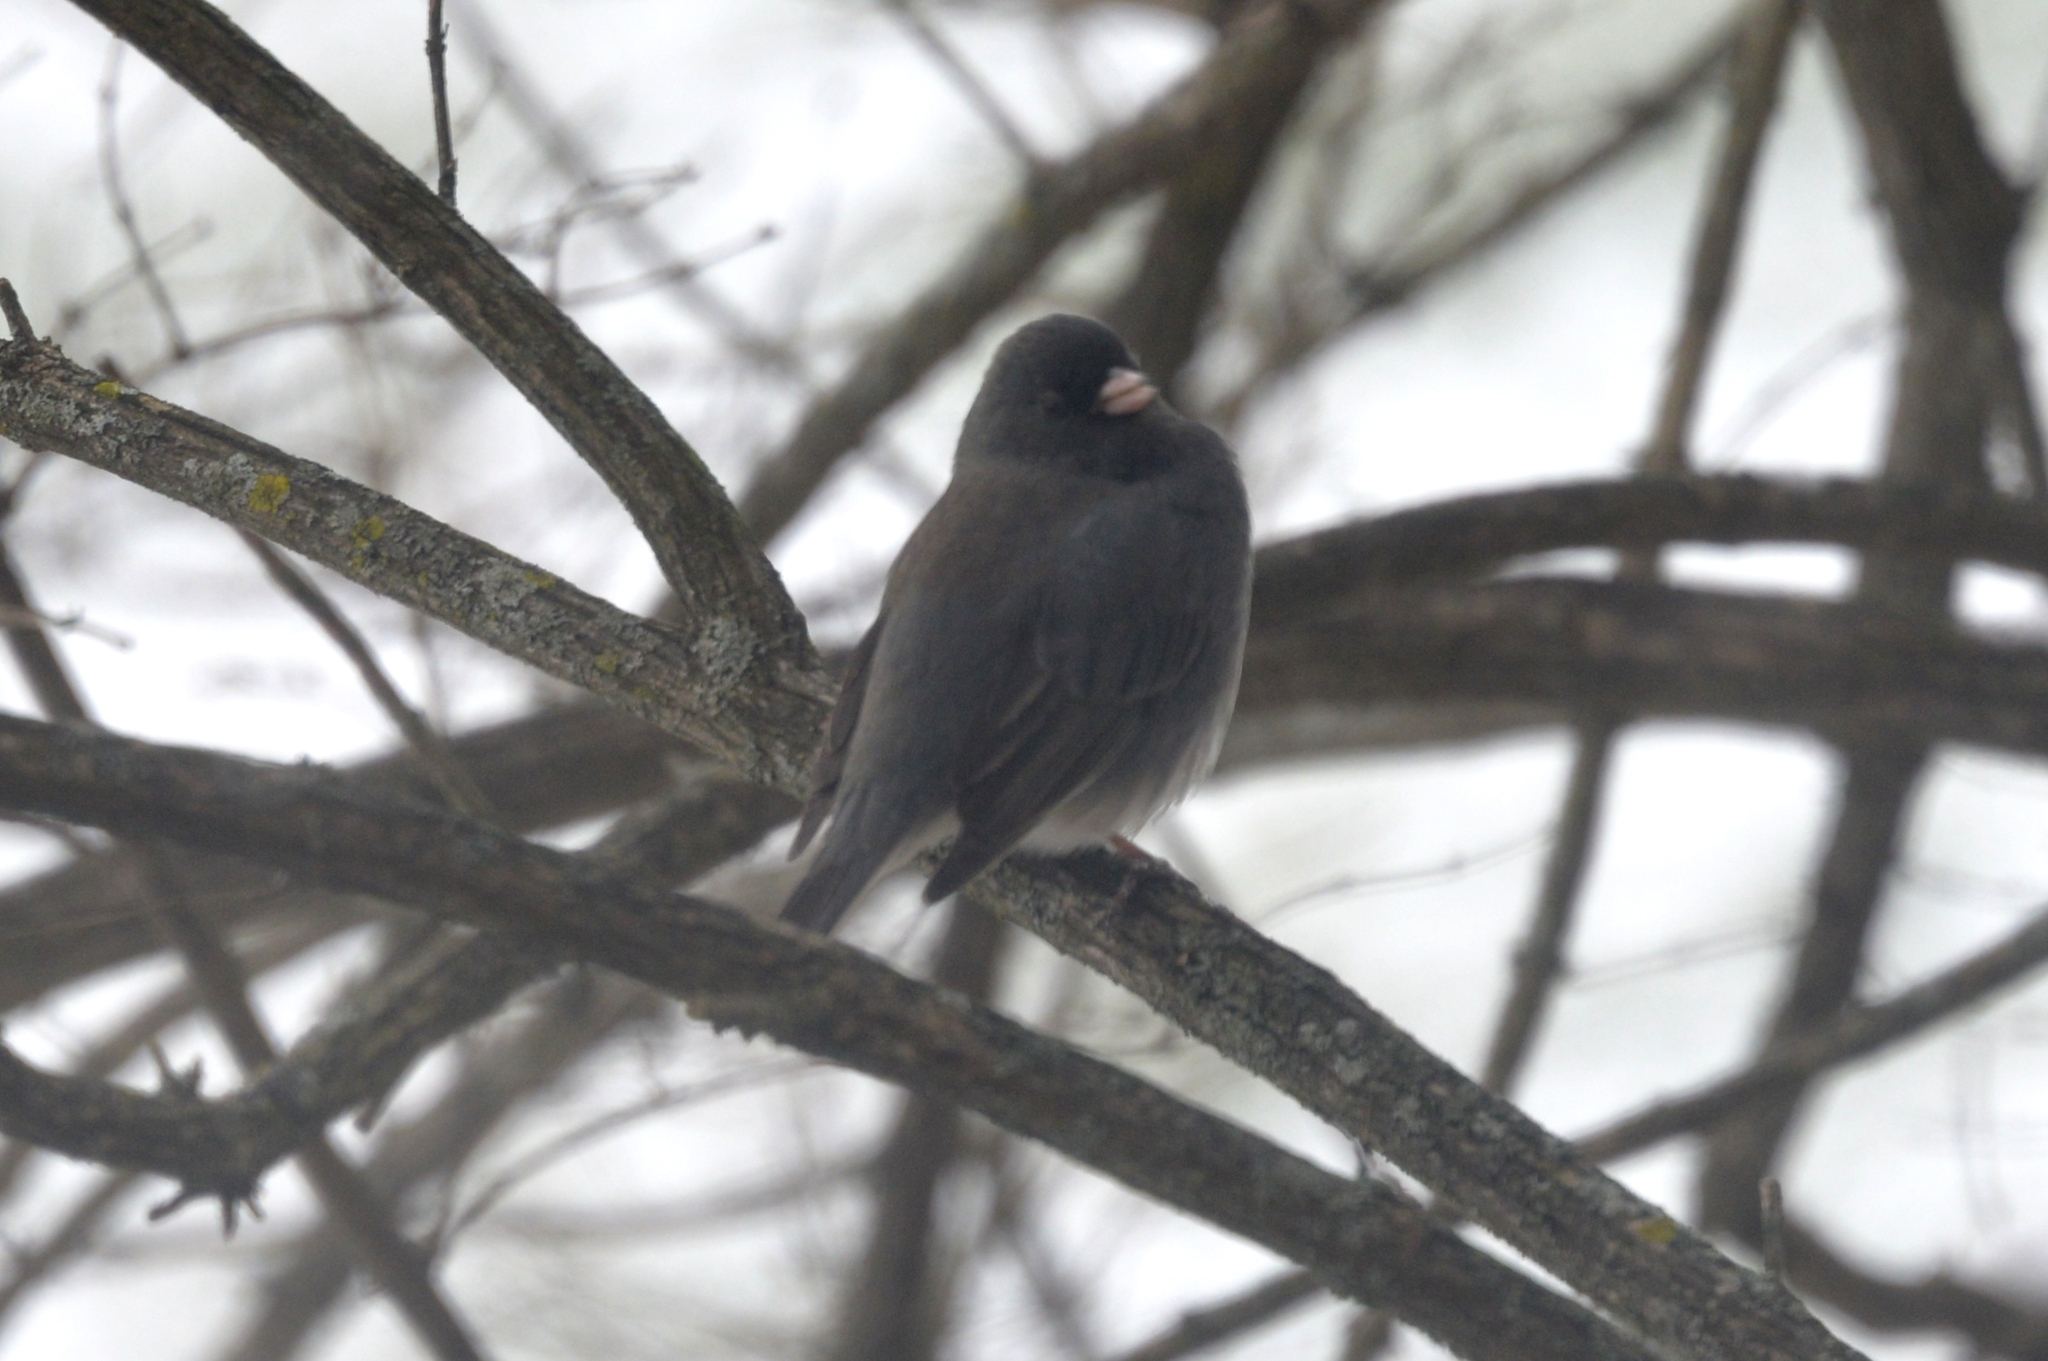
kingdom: Animalia
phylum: Chordata
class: Aves
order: Passeriformes
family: Passerellidae
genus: Junco
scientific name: Junco hyemalis
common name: Dark-eyed junco
